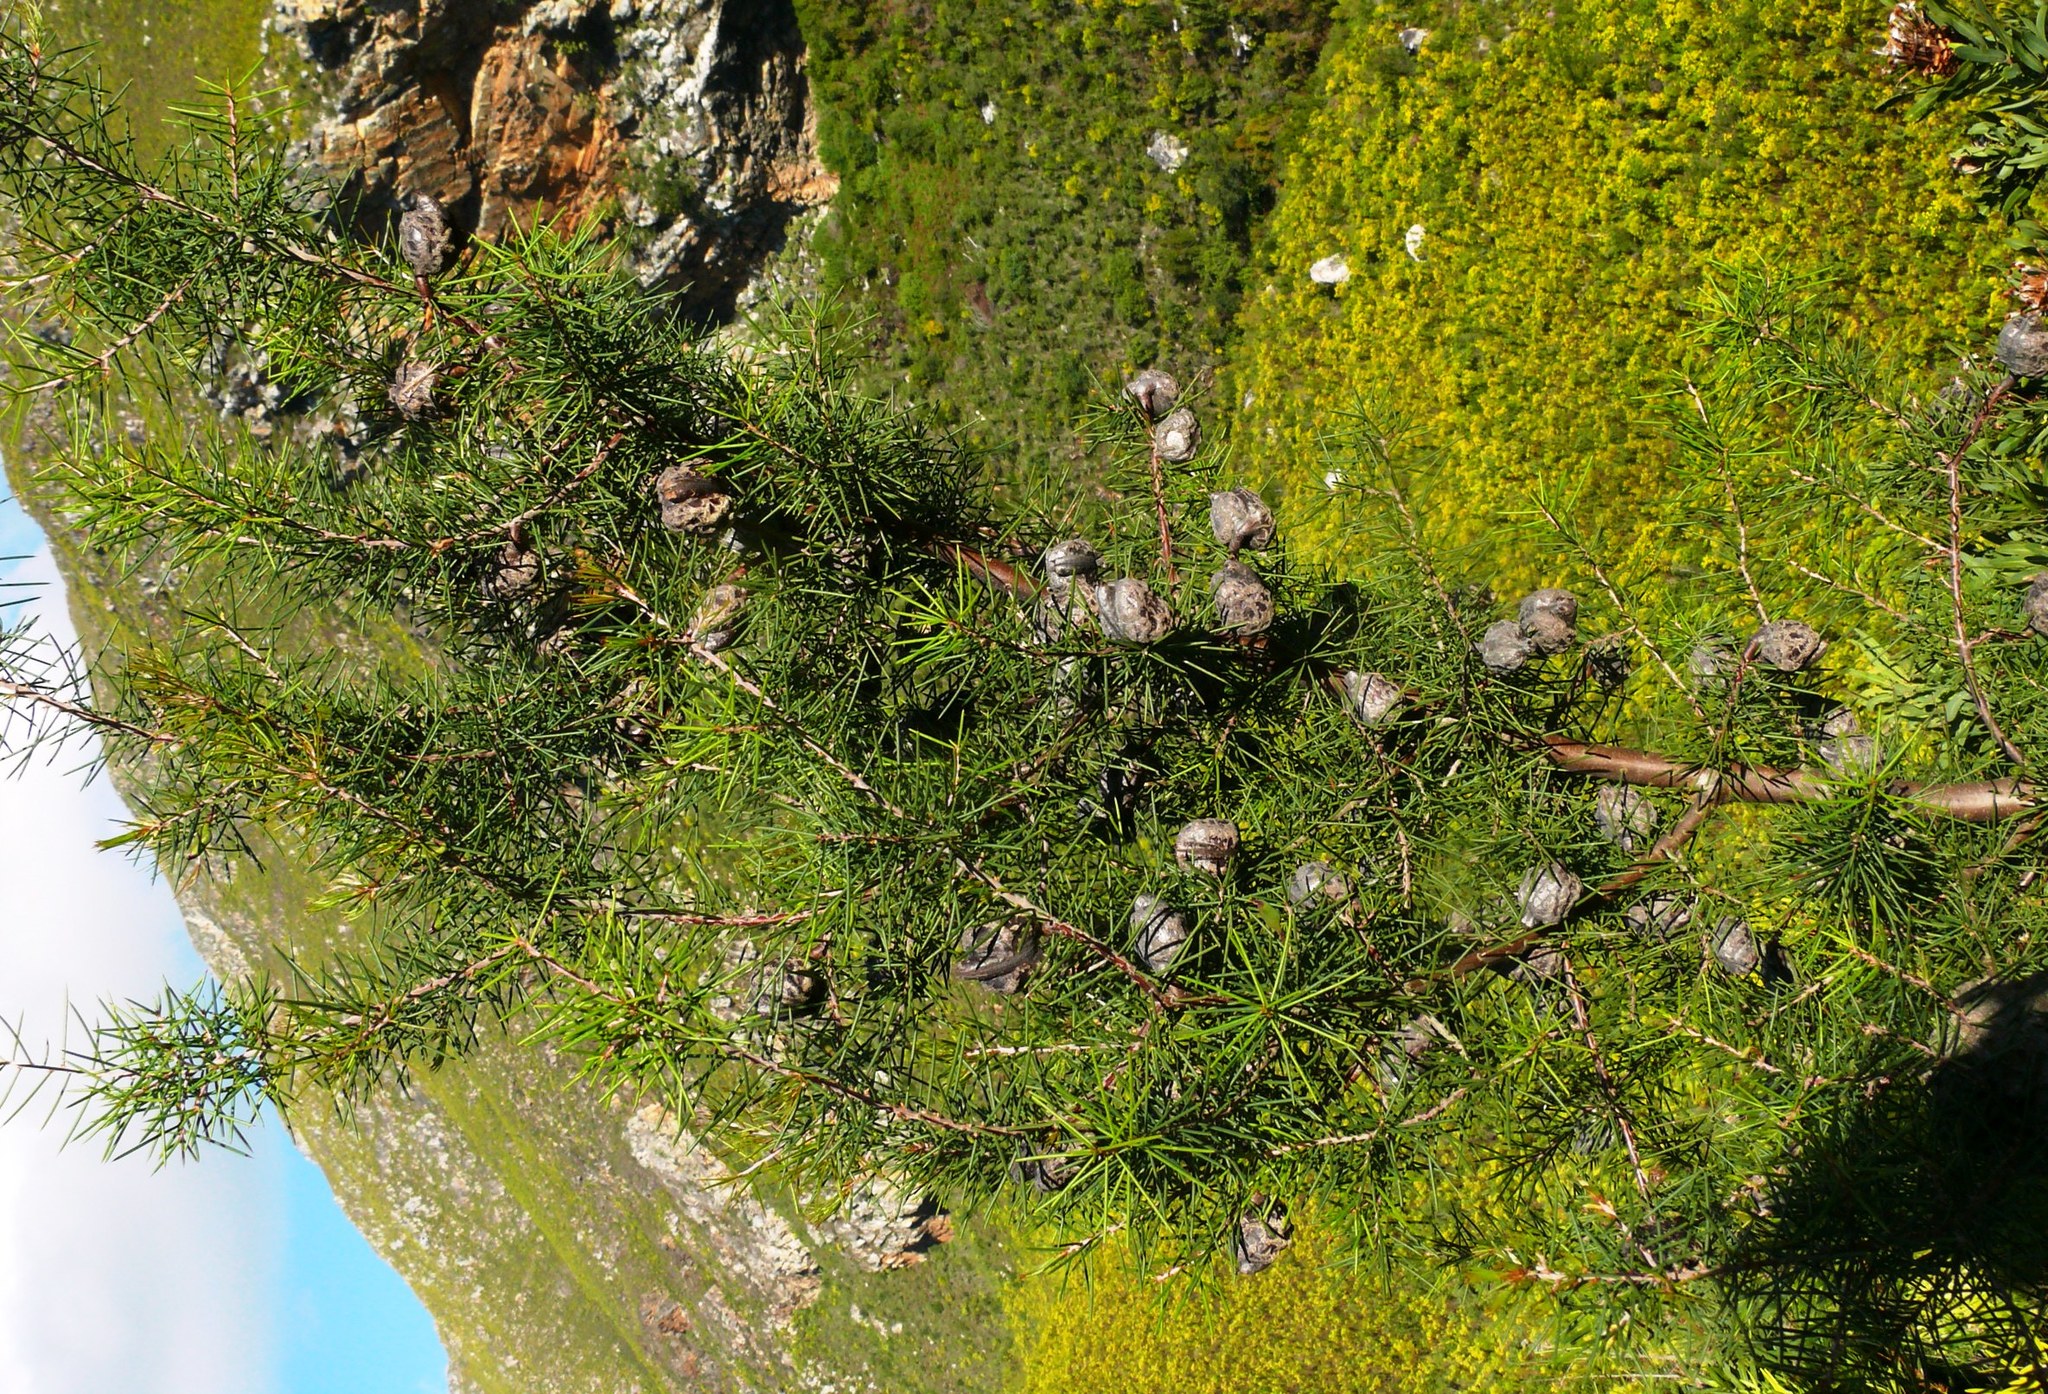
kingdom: Plantae
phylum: Tracheophyta
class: Magnoliopsida
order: Proteales
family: Proteaceae
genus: Hakea
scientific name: Hakea sericea
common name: Needle bush
